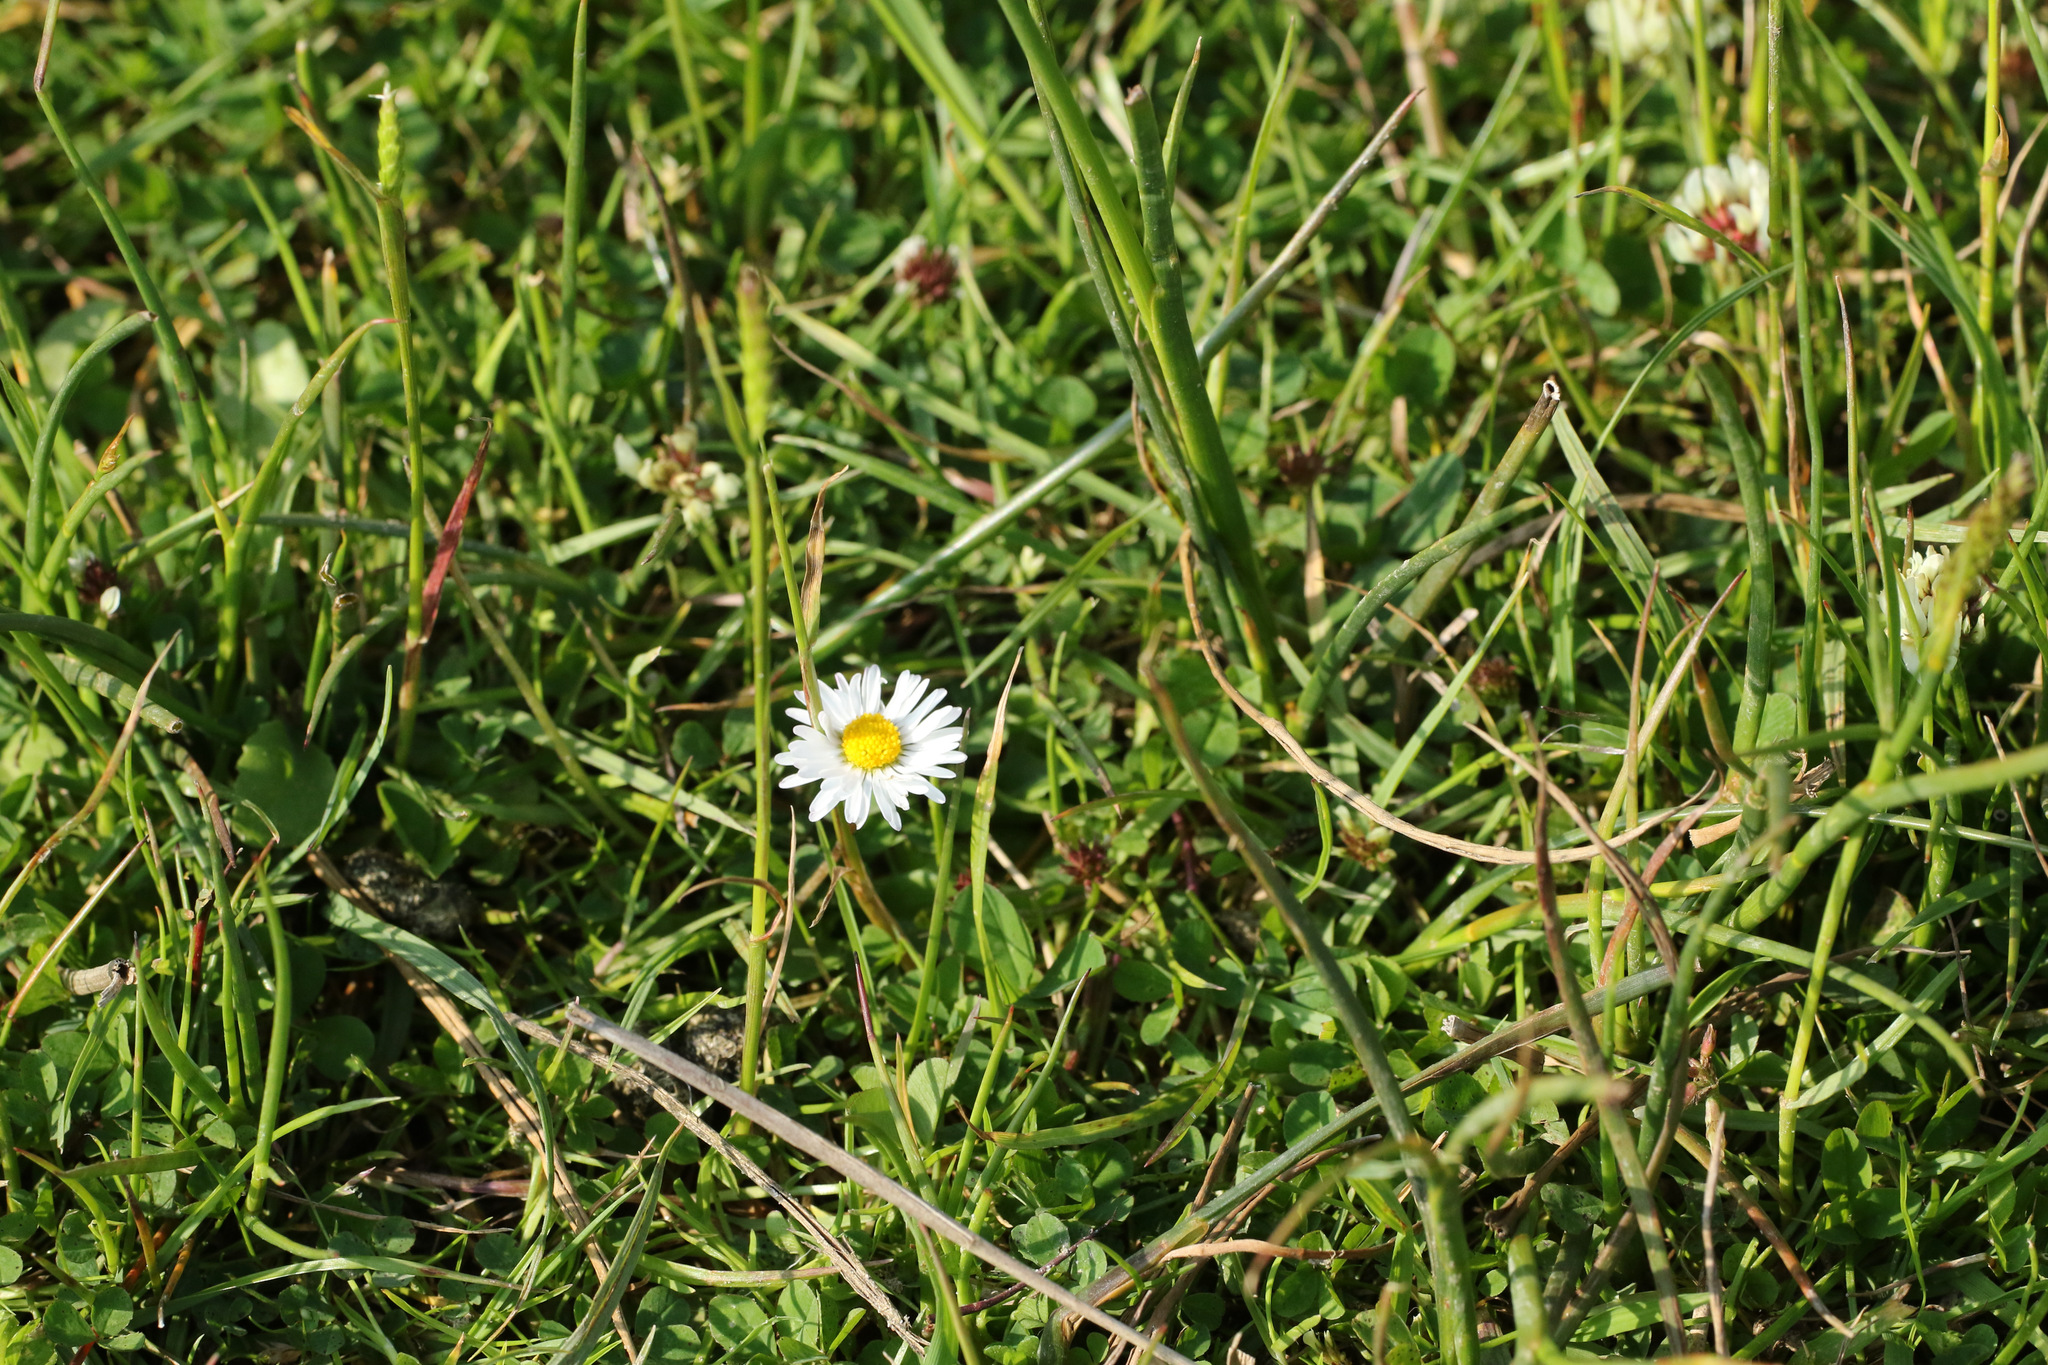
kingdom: Plantae
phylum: Tracheophyta
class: Magnoliopsida
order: Asterales
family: Asteraceae
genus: Bellis
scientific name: Bellis perennis
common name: Lawndaisy
